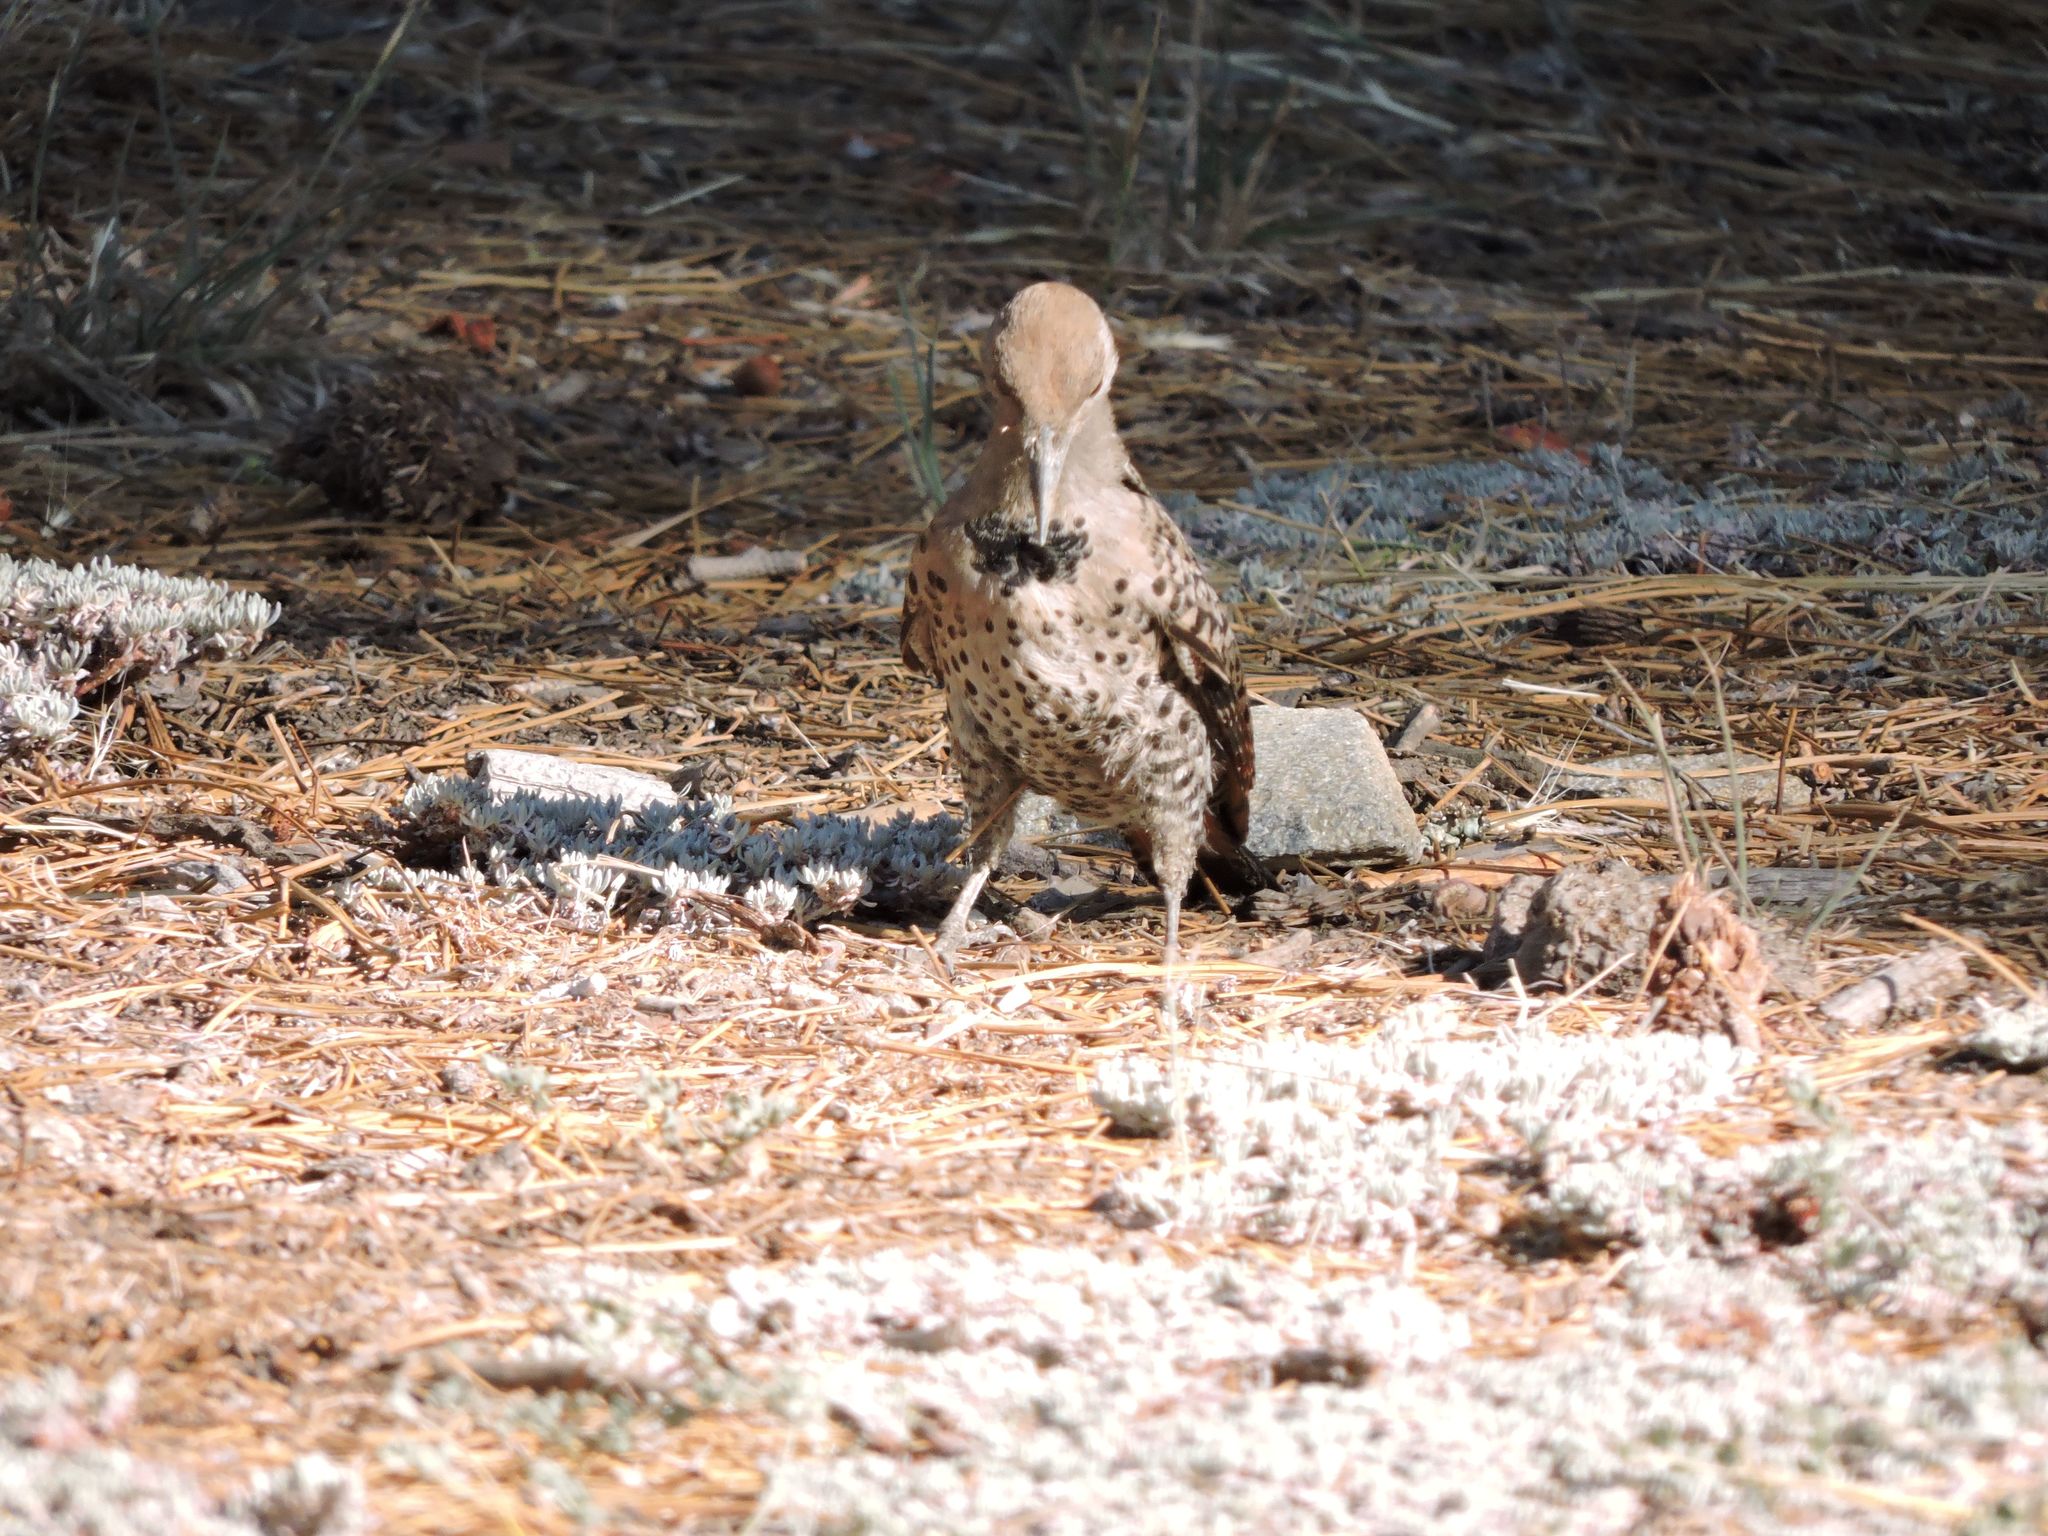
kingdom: Animalia
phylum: Chordata
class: Aves
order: Piciformes
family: Picidae
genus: Colaptes
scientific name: Colaptes auratus
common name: Northern flicker
